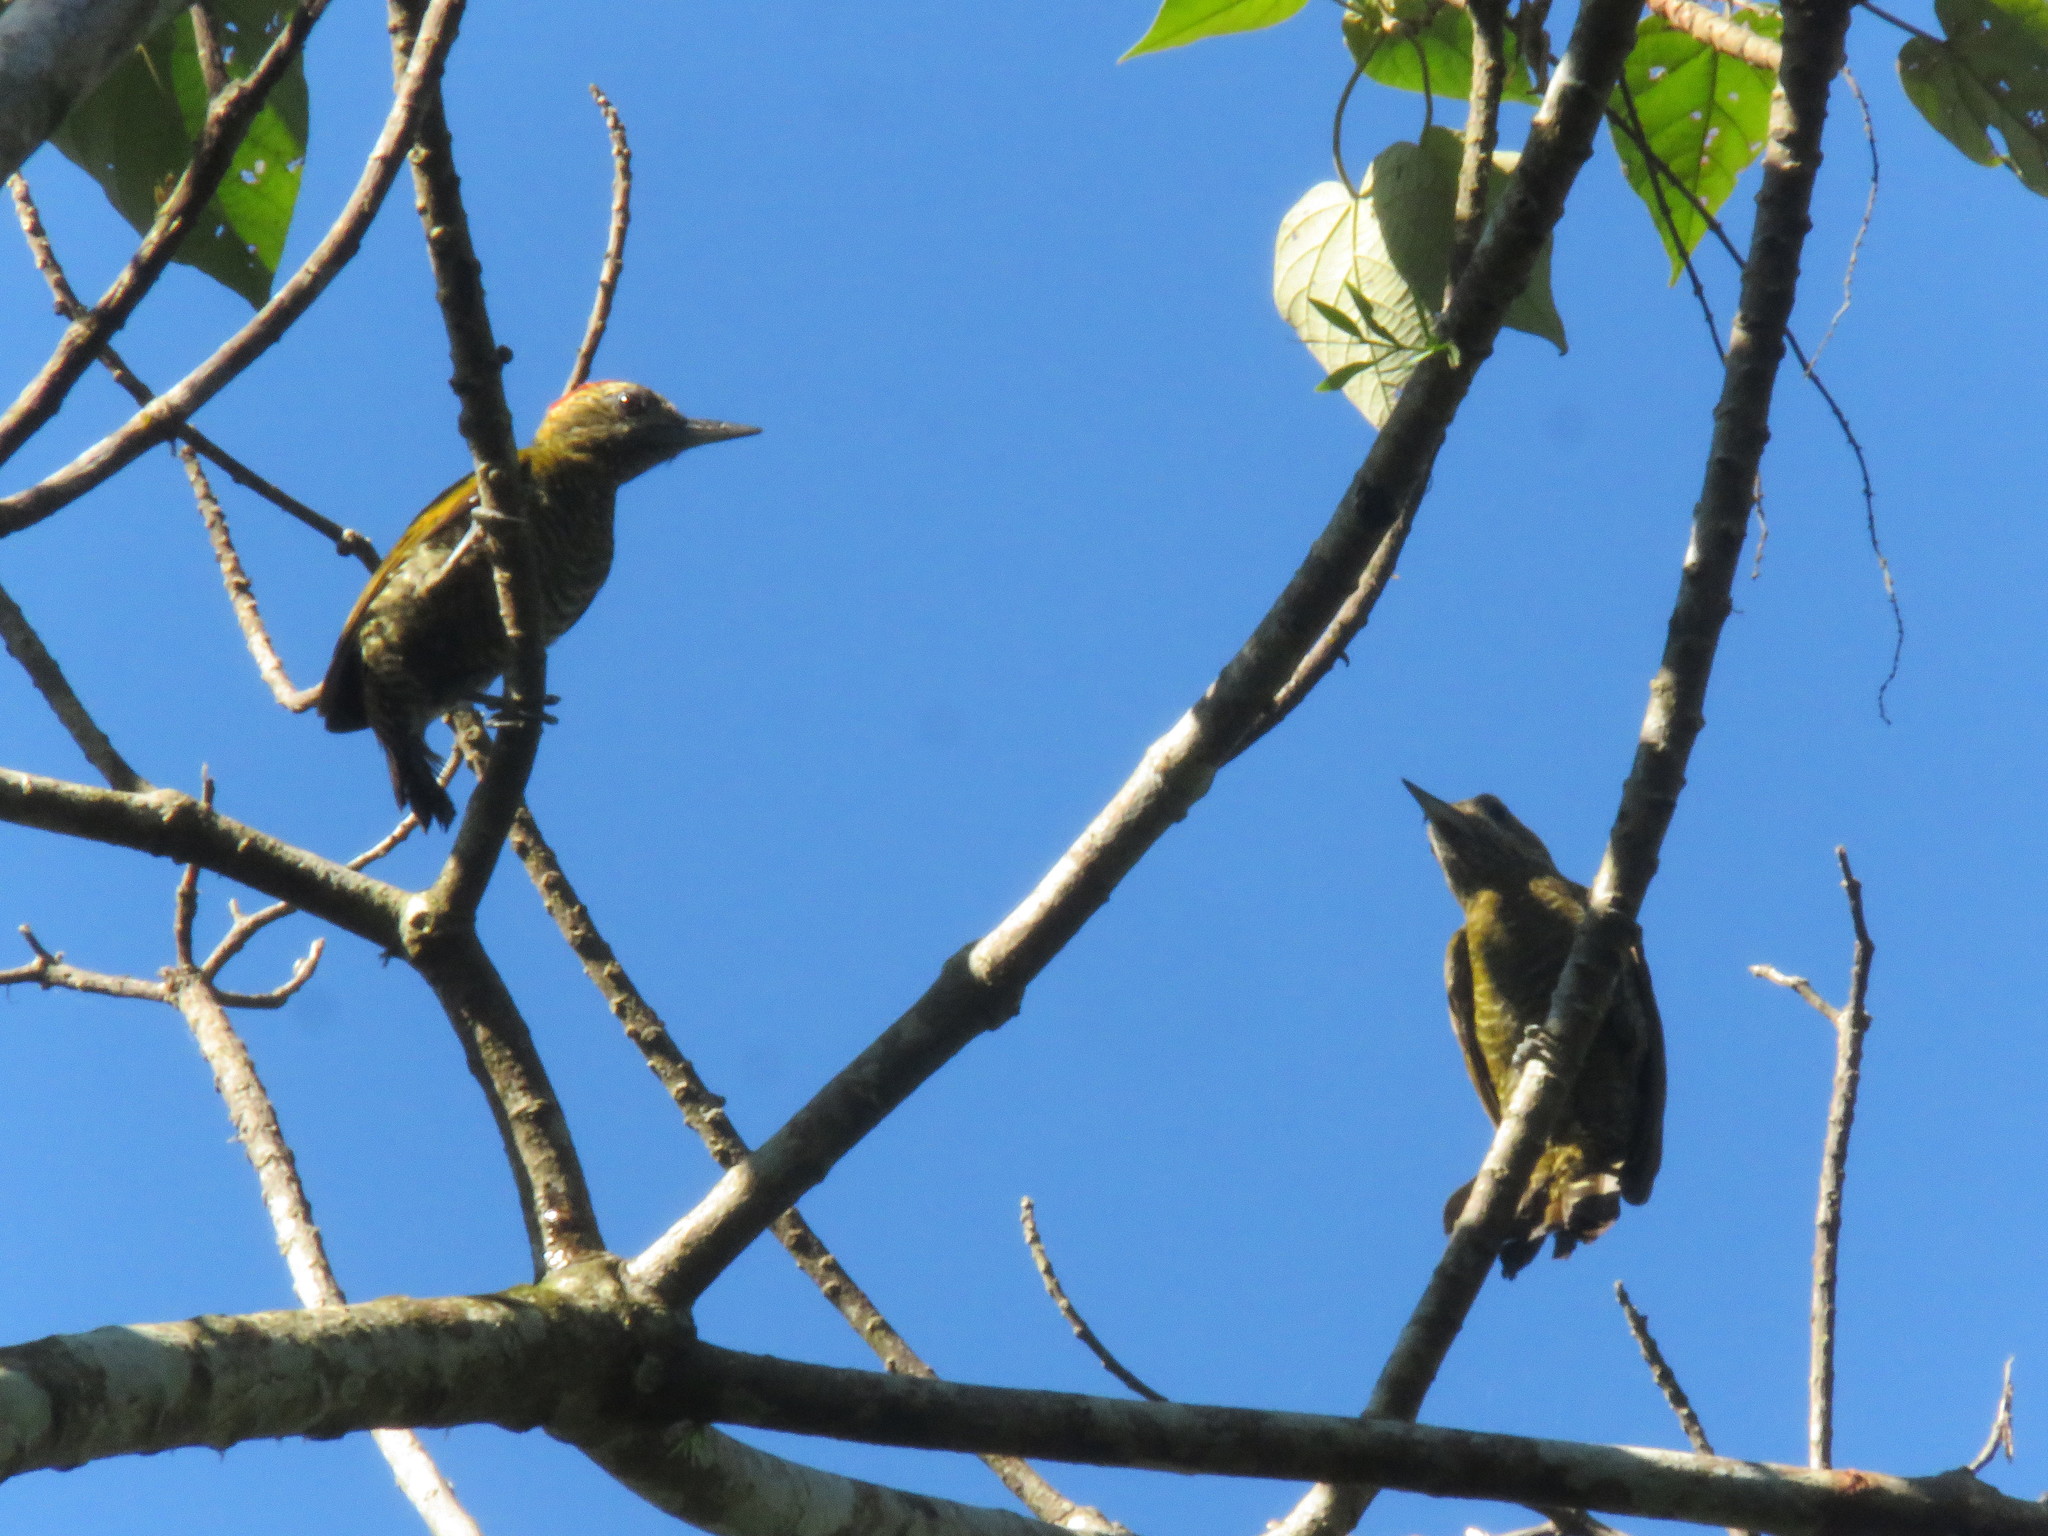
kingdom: Animalia
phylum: Chordata
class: Aves
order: Piciformes
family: Picidae
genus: Veniliornis
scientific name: Veniliornis passerinus
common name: Little woodpecker
